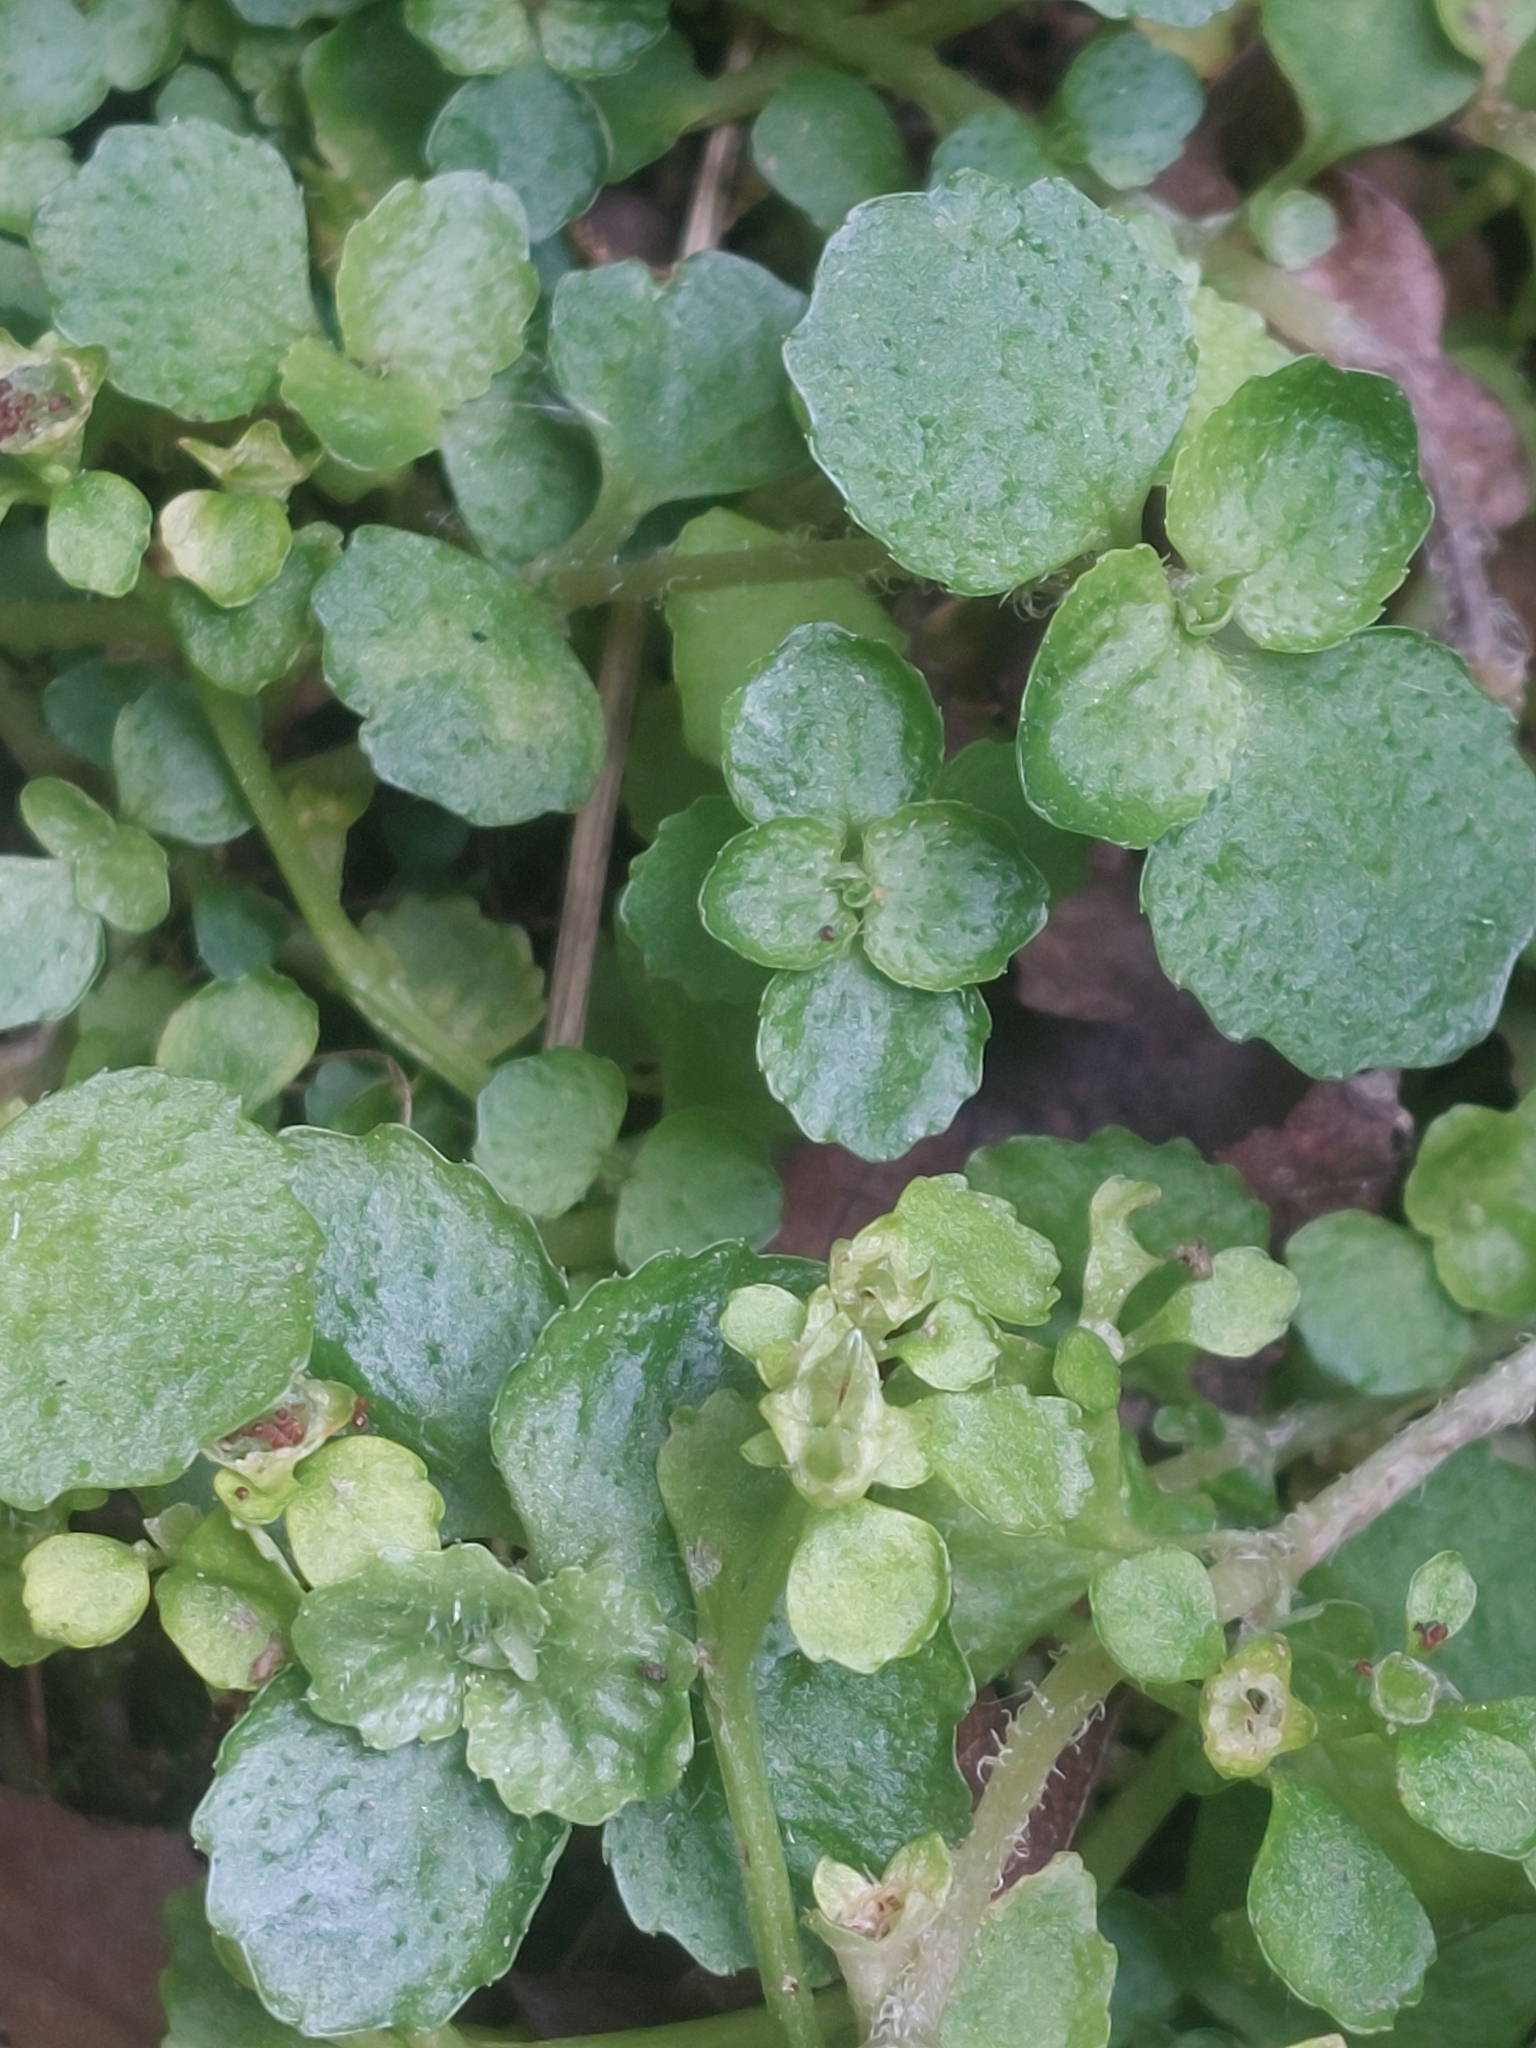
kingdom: Plantae
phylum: Tracheophyta
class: Magnoliopsida
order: Saxifragales
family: Saxifragaceae
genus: Chrysosplenium
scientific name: Chrysosplenium oppositifolium
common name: Opposite-leaved golden-saxifrage
